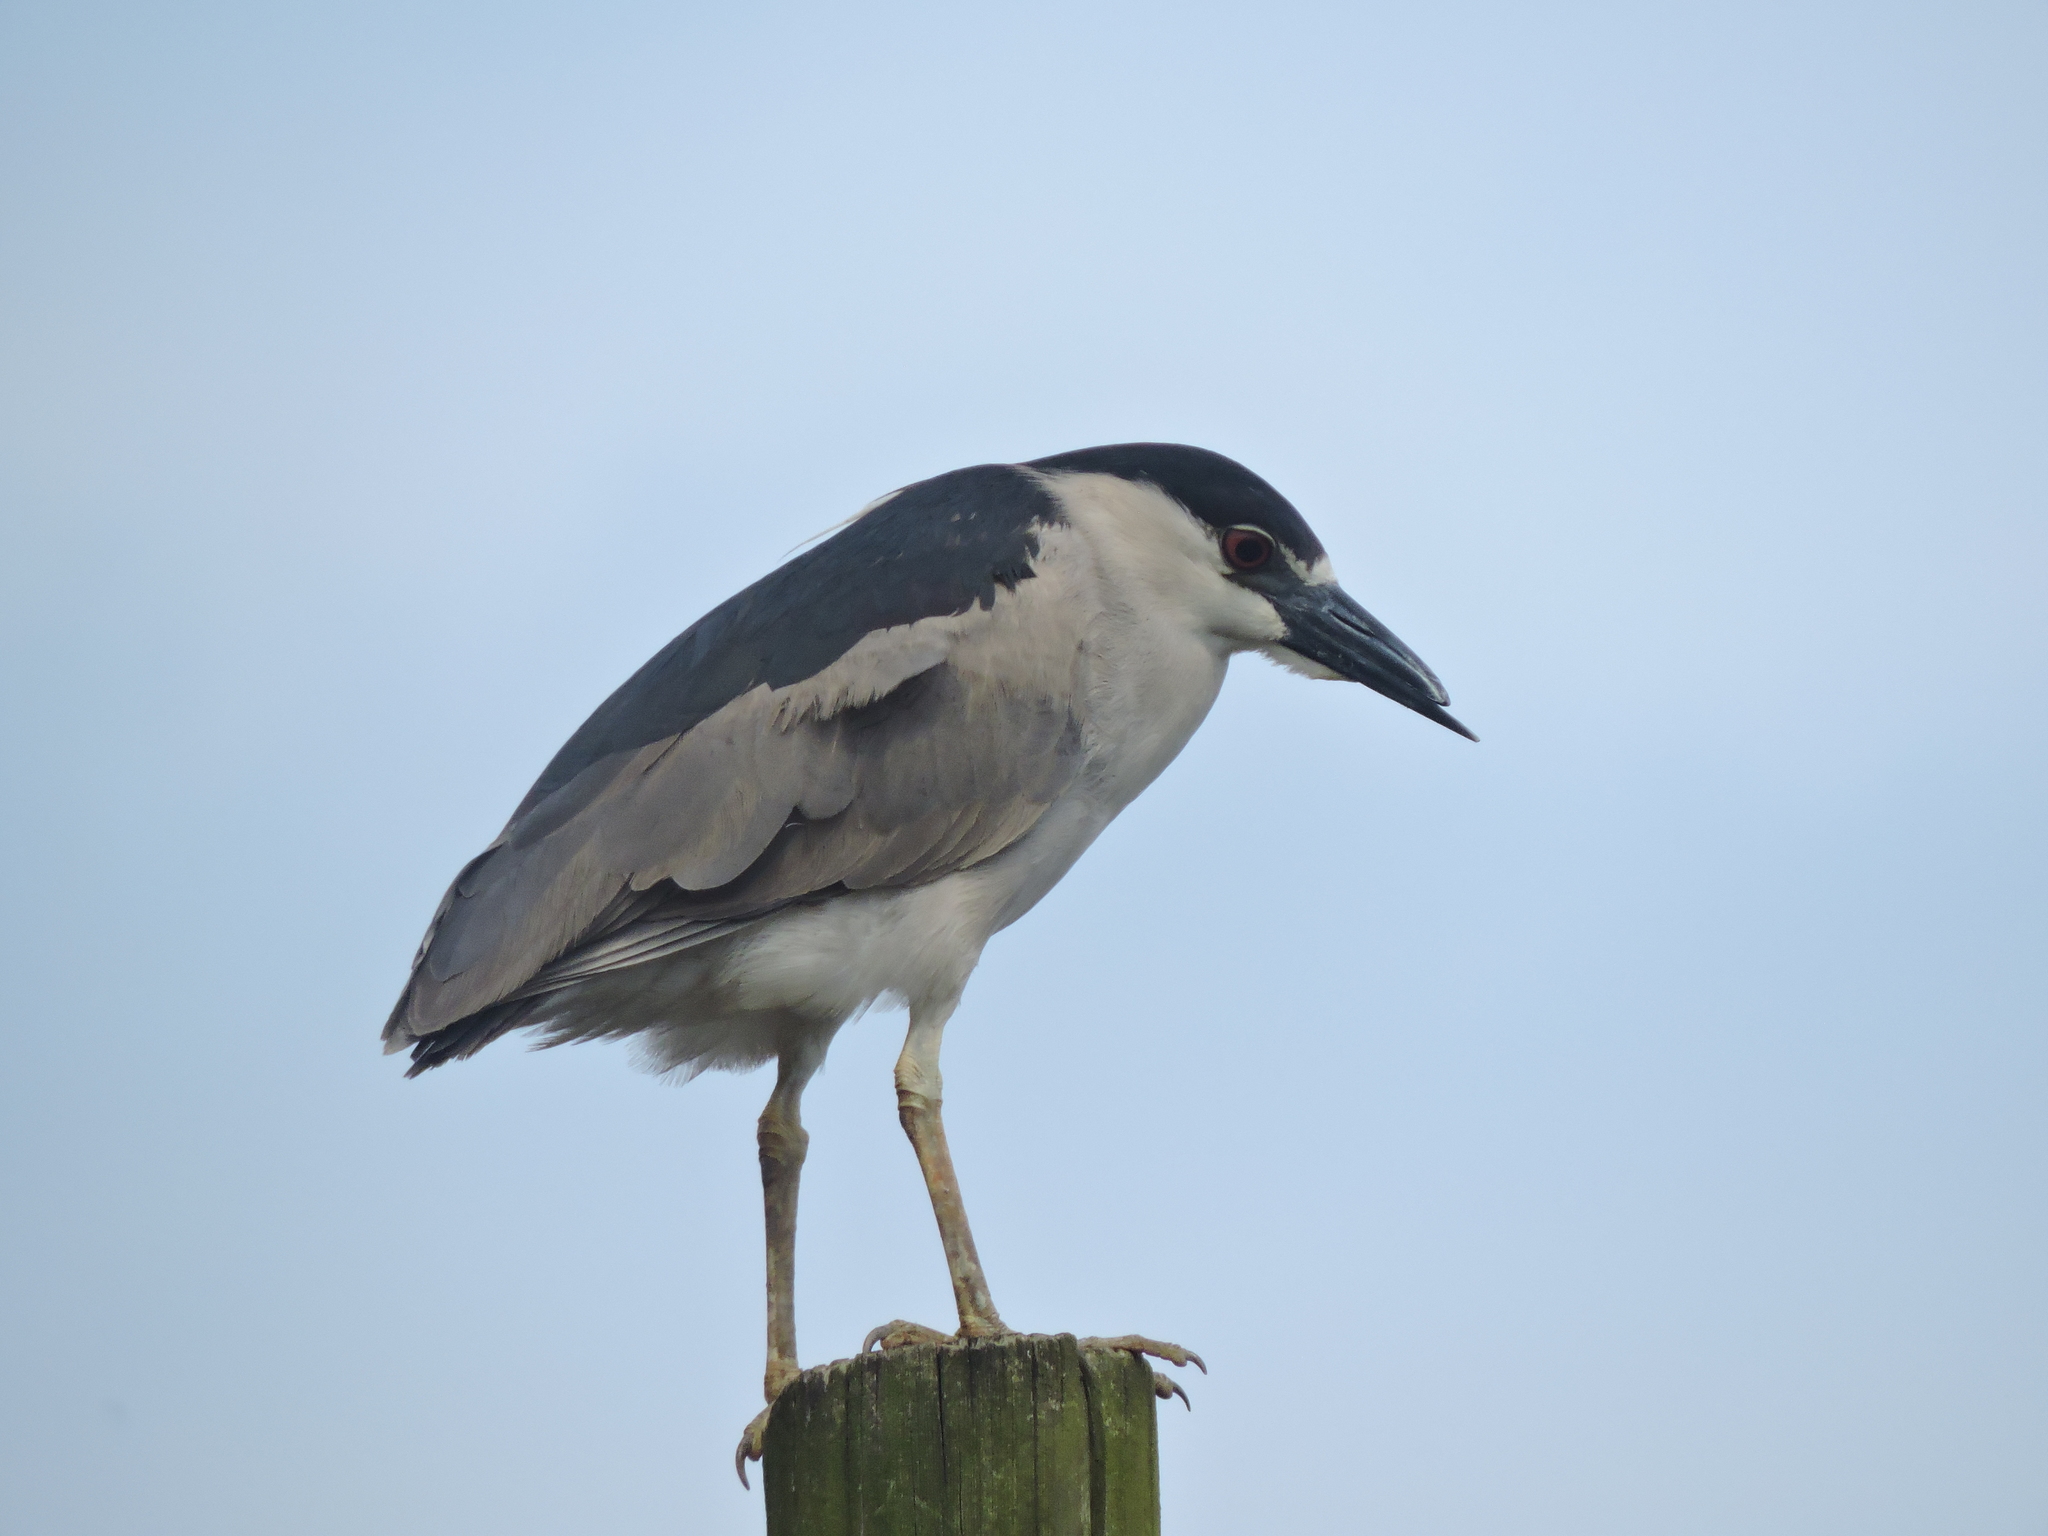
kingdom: Animalia
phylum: Chordata
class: Aves
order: Pelecaniformes
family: Ardeidae
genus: Nycticorax
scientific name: Nycticorax nycticorax
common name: Black-crowned night heron
